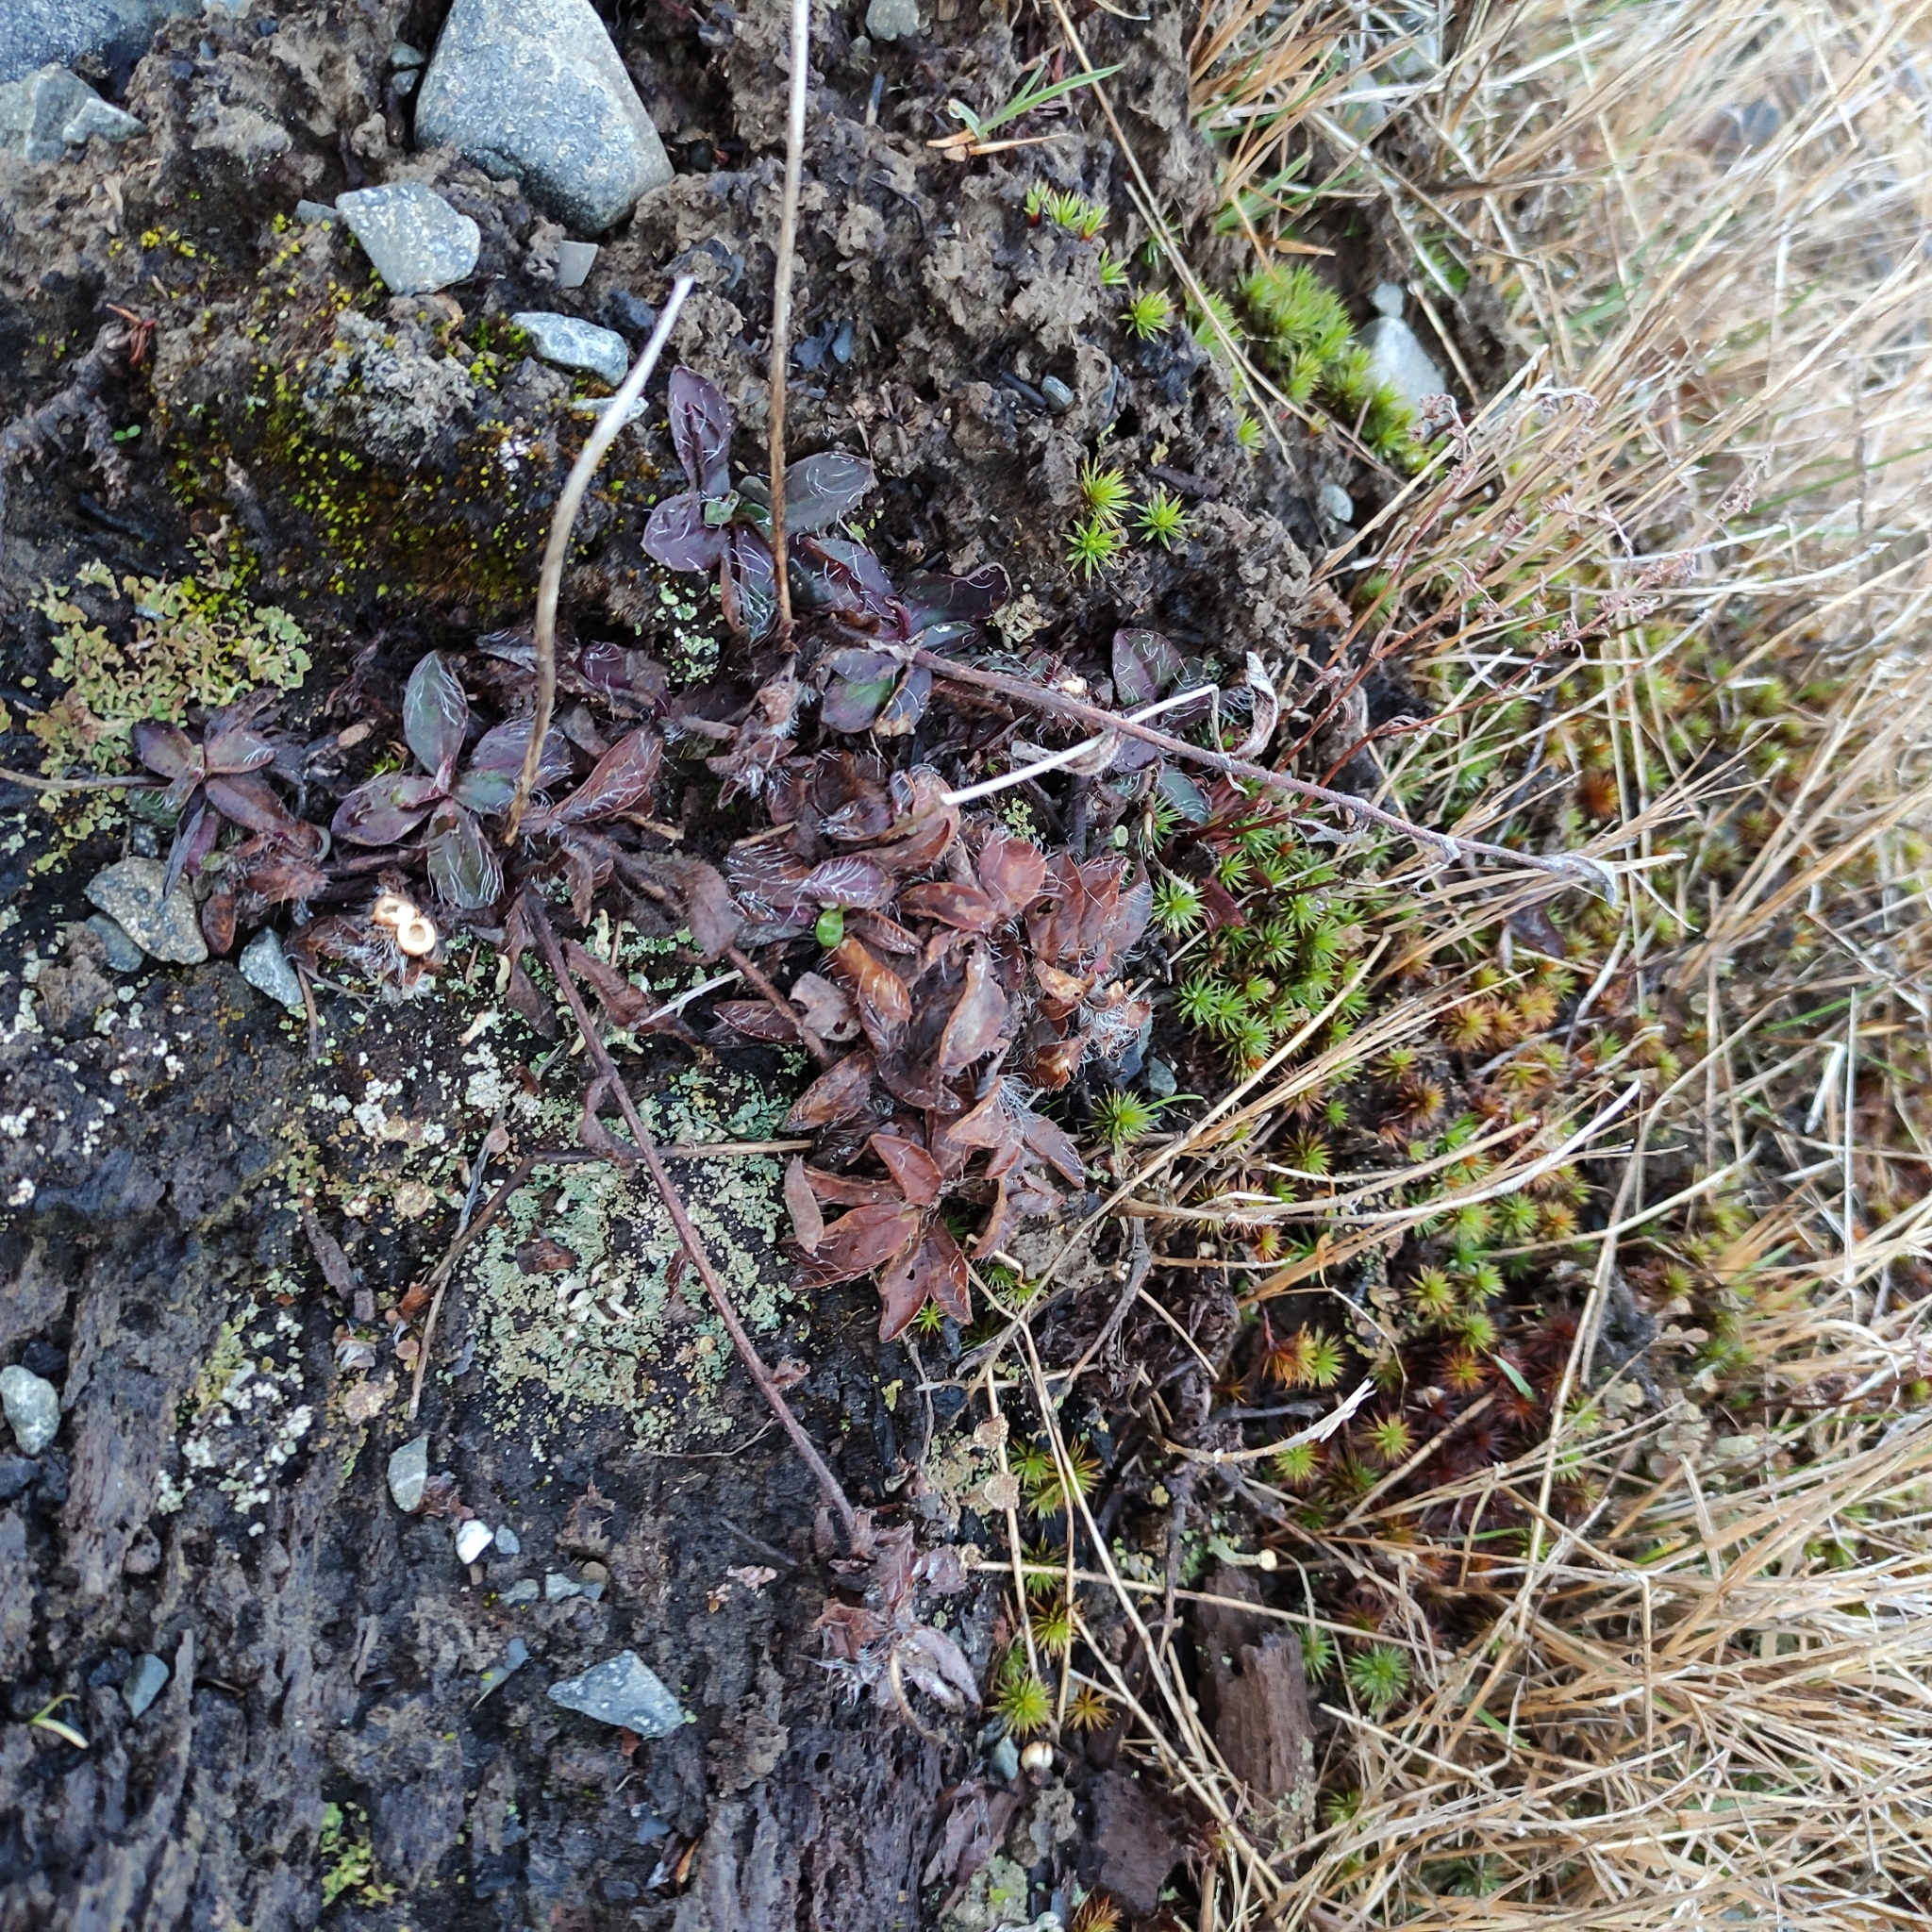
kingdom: Plantae
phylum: Tracheophyta
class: Magnoliopsida
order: Asterales
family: Asteraceae
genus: Pilosella
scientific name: Pilosella officinarum
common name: Mouse-ear hawkweed
